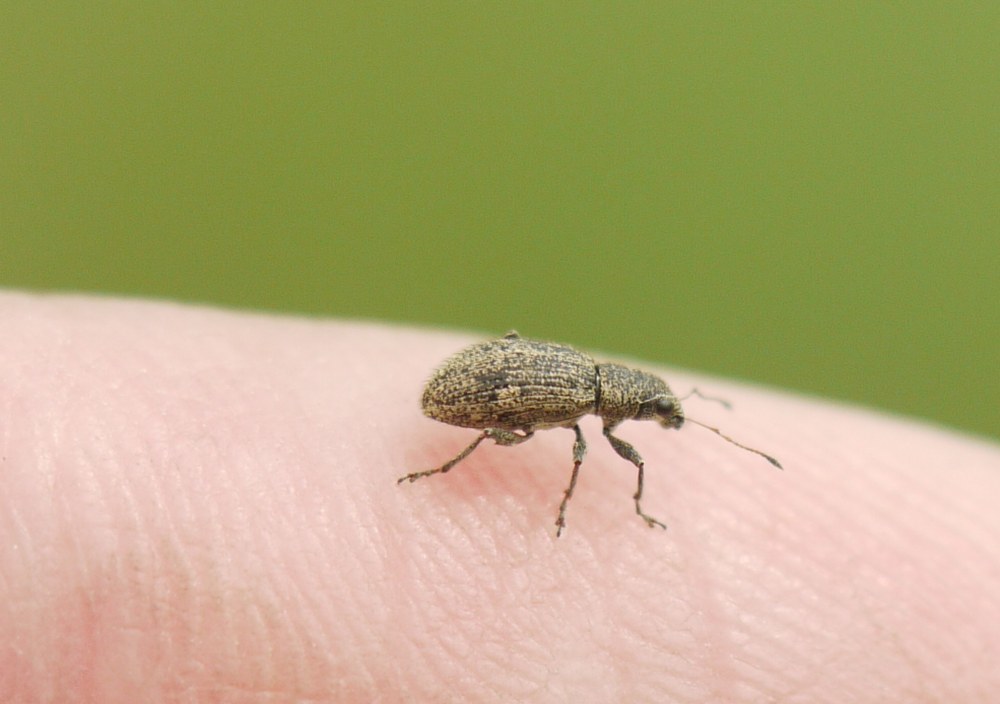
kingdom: Animalia
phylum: Arthropoda
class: Insecta
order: Coleoptera
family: Curculionidae
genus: Polydrusus
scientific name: Polydrusus inustus
